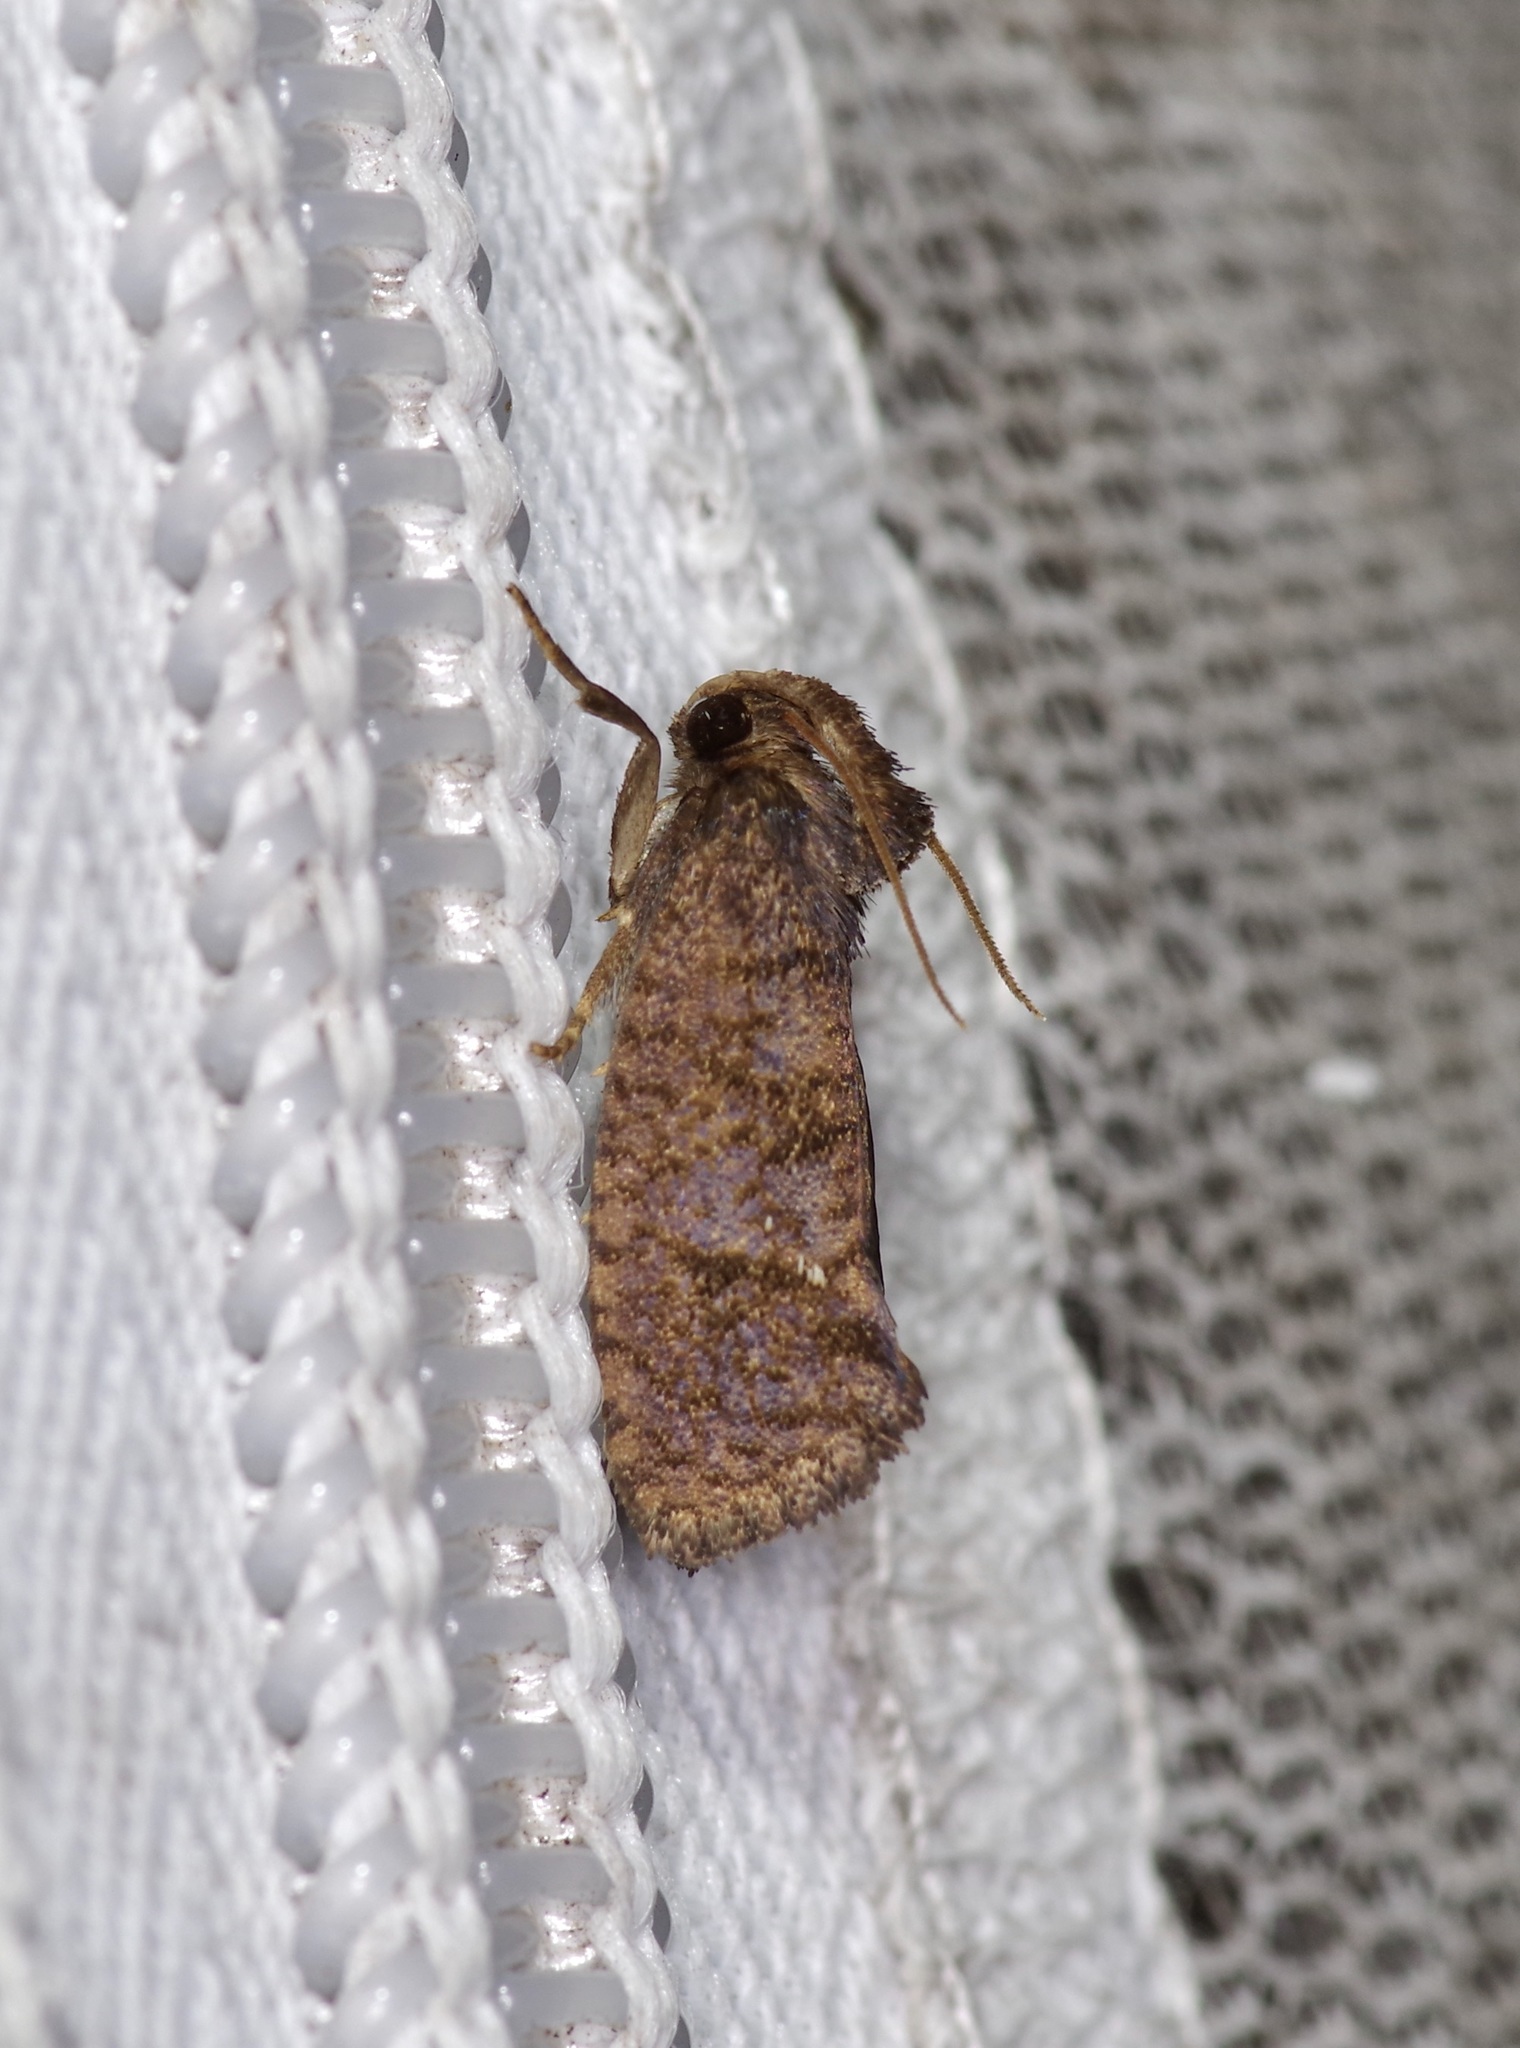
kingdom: Animalia
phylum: Arthropoda
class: Insecta
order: Lepidoptera
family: Tineidae
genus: Acrolophus
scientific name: Acrolophus texanella
